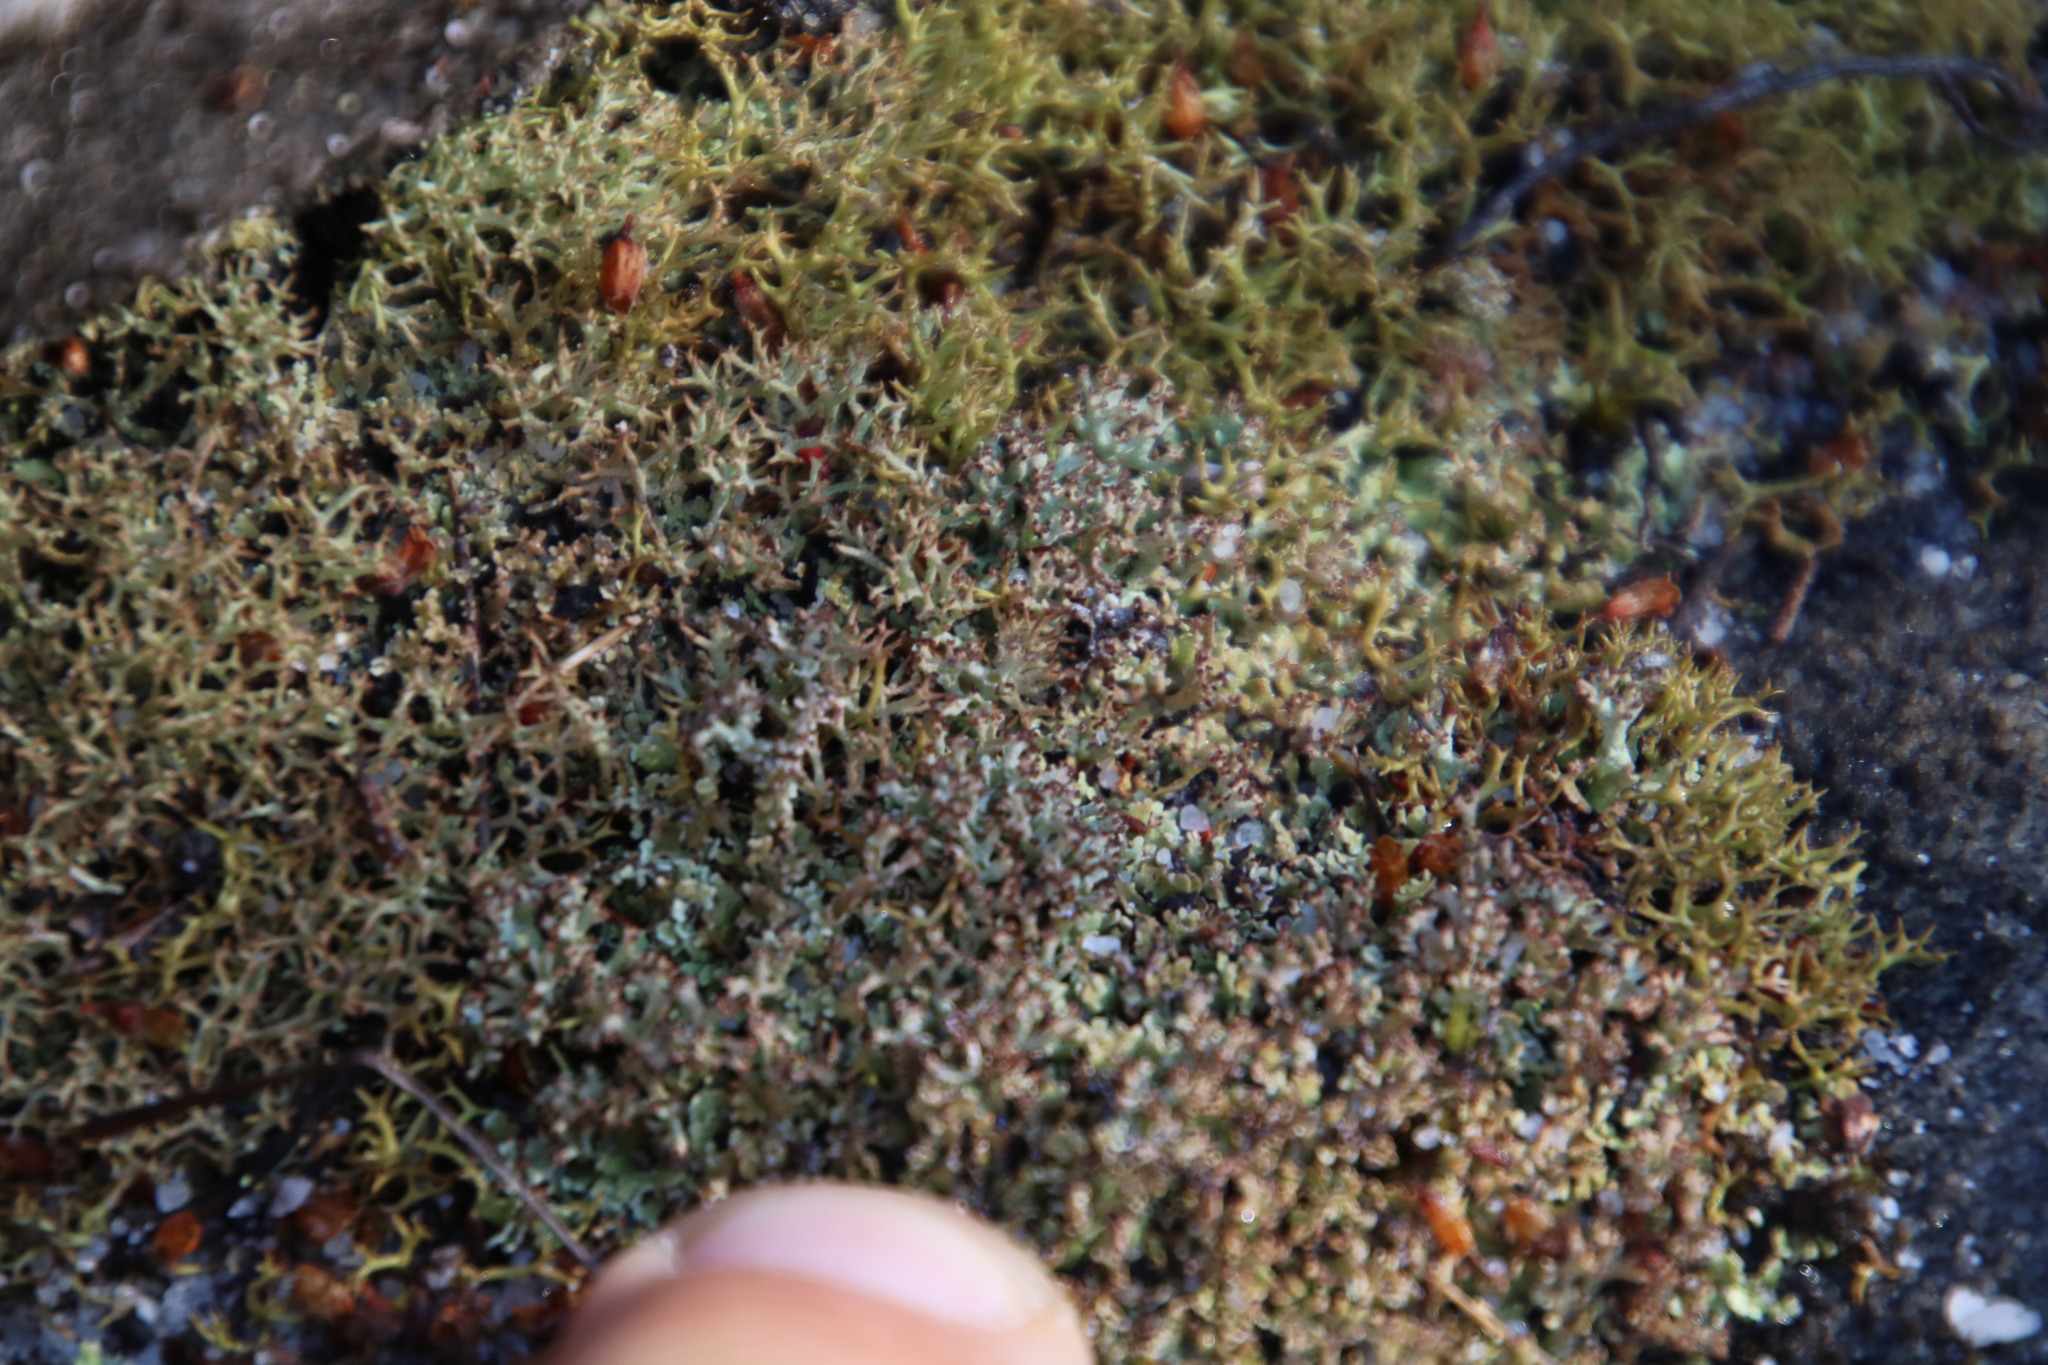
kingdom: Fungi
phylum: Ascomycota
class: Lecanoromycetes
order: Lecanorales
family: Cladoniaceae
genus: Cladonia
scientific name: Cladonia
